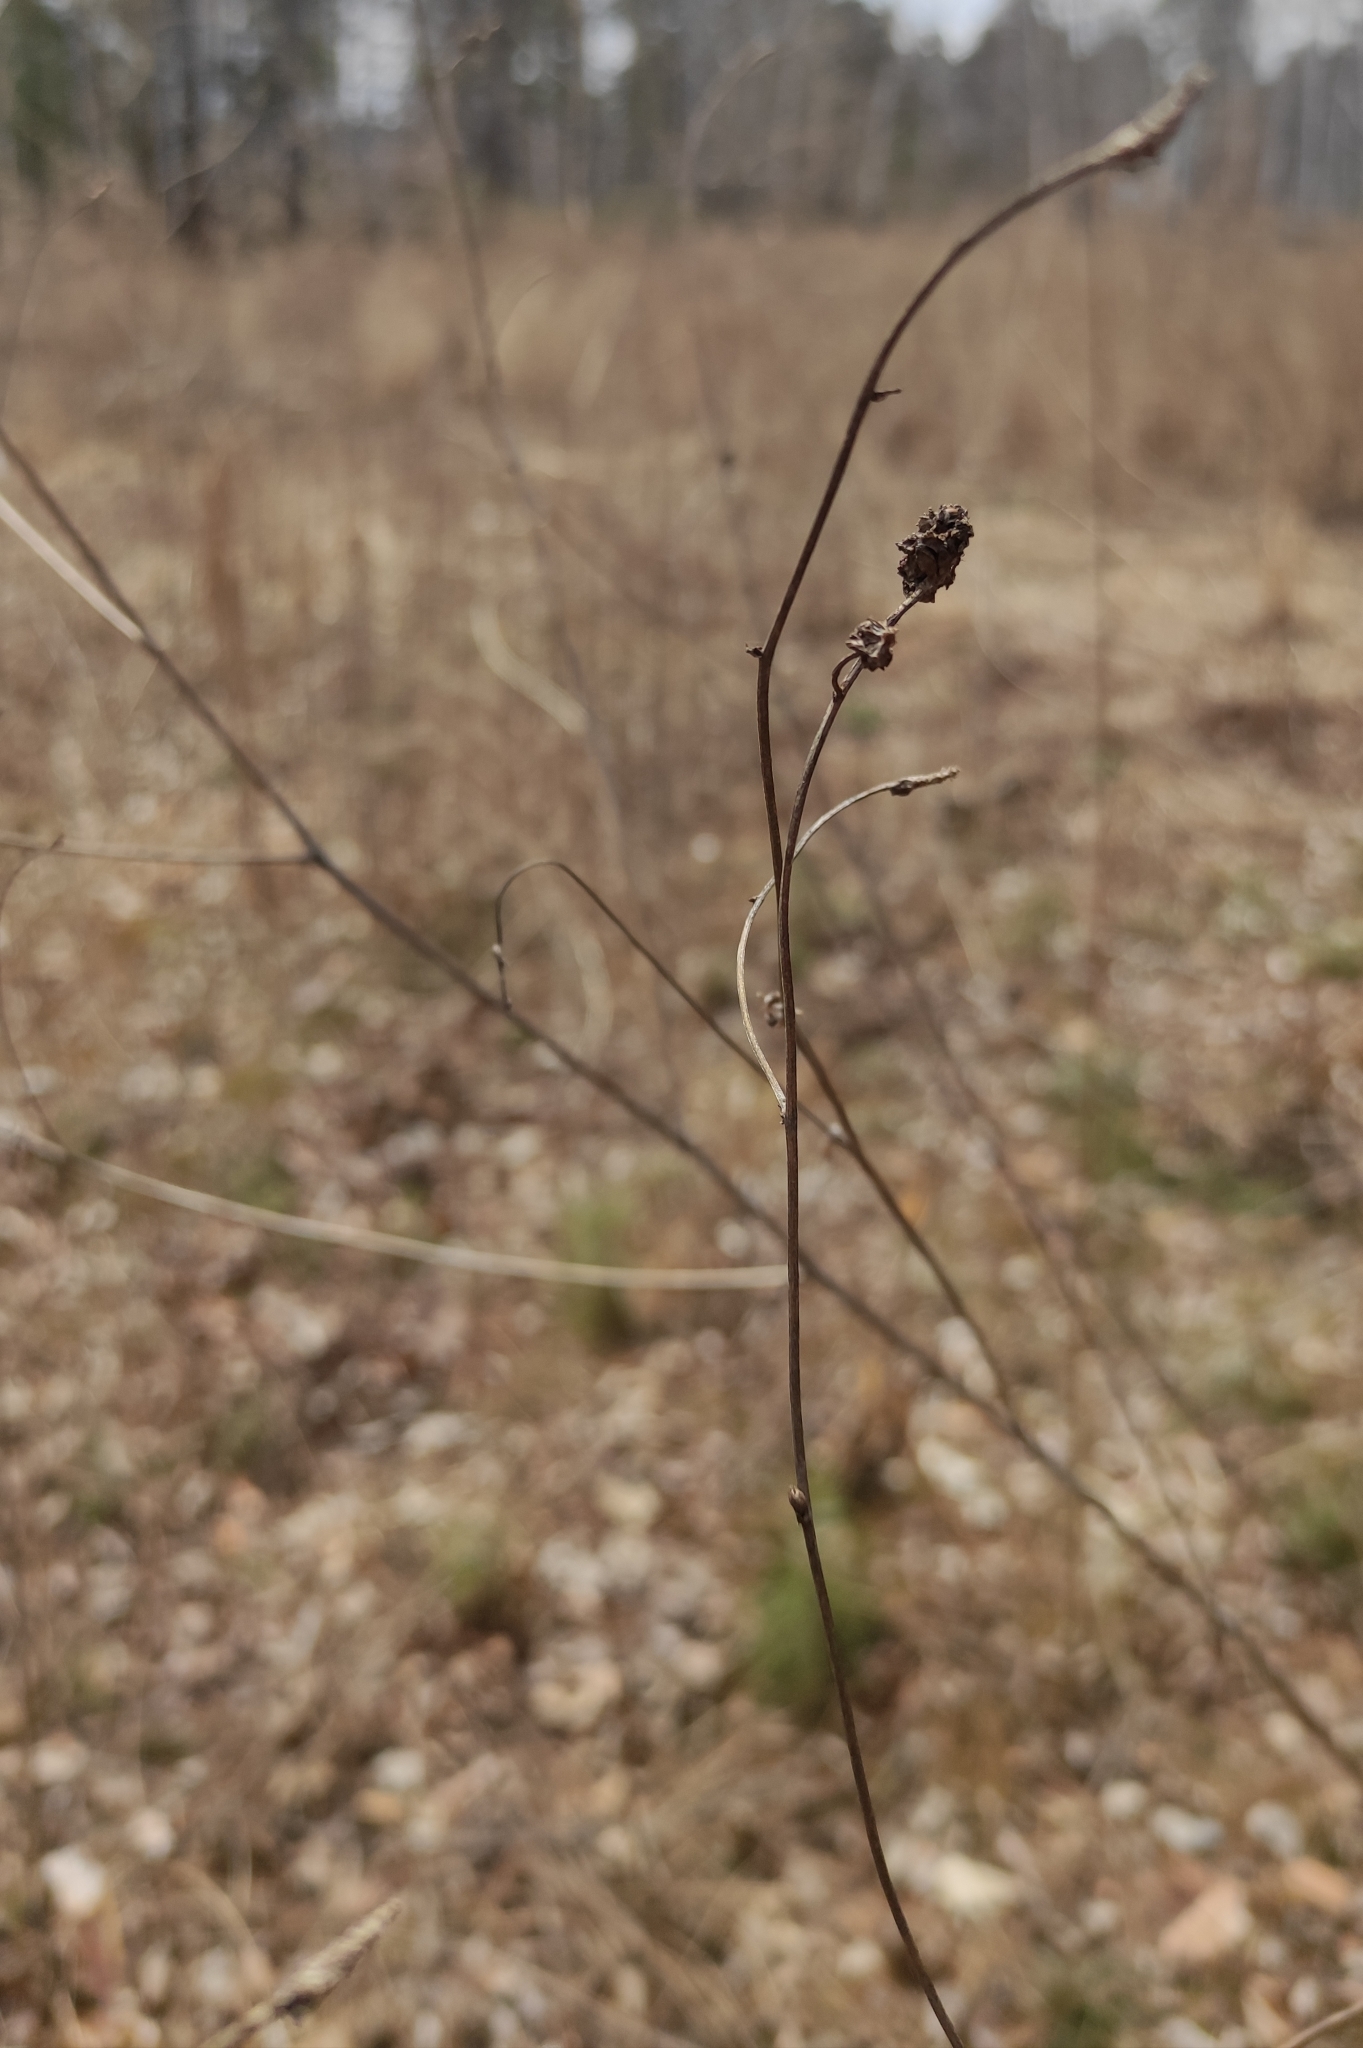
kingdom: Plantae
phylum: Tracheophyta
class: Magnoliopsida
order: Rosales
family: Rosaceae
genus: Sanguisorba
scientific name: Sanguisorba officinalis
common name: Great burnet
